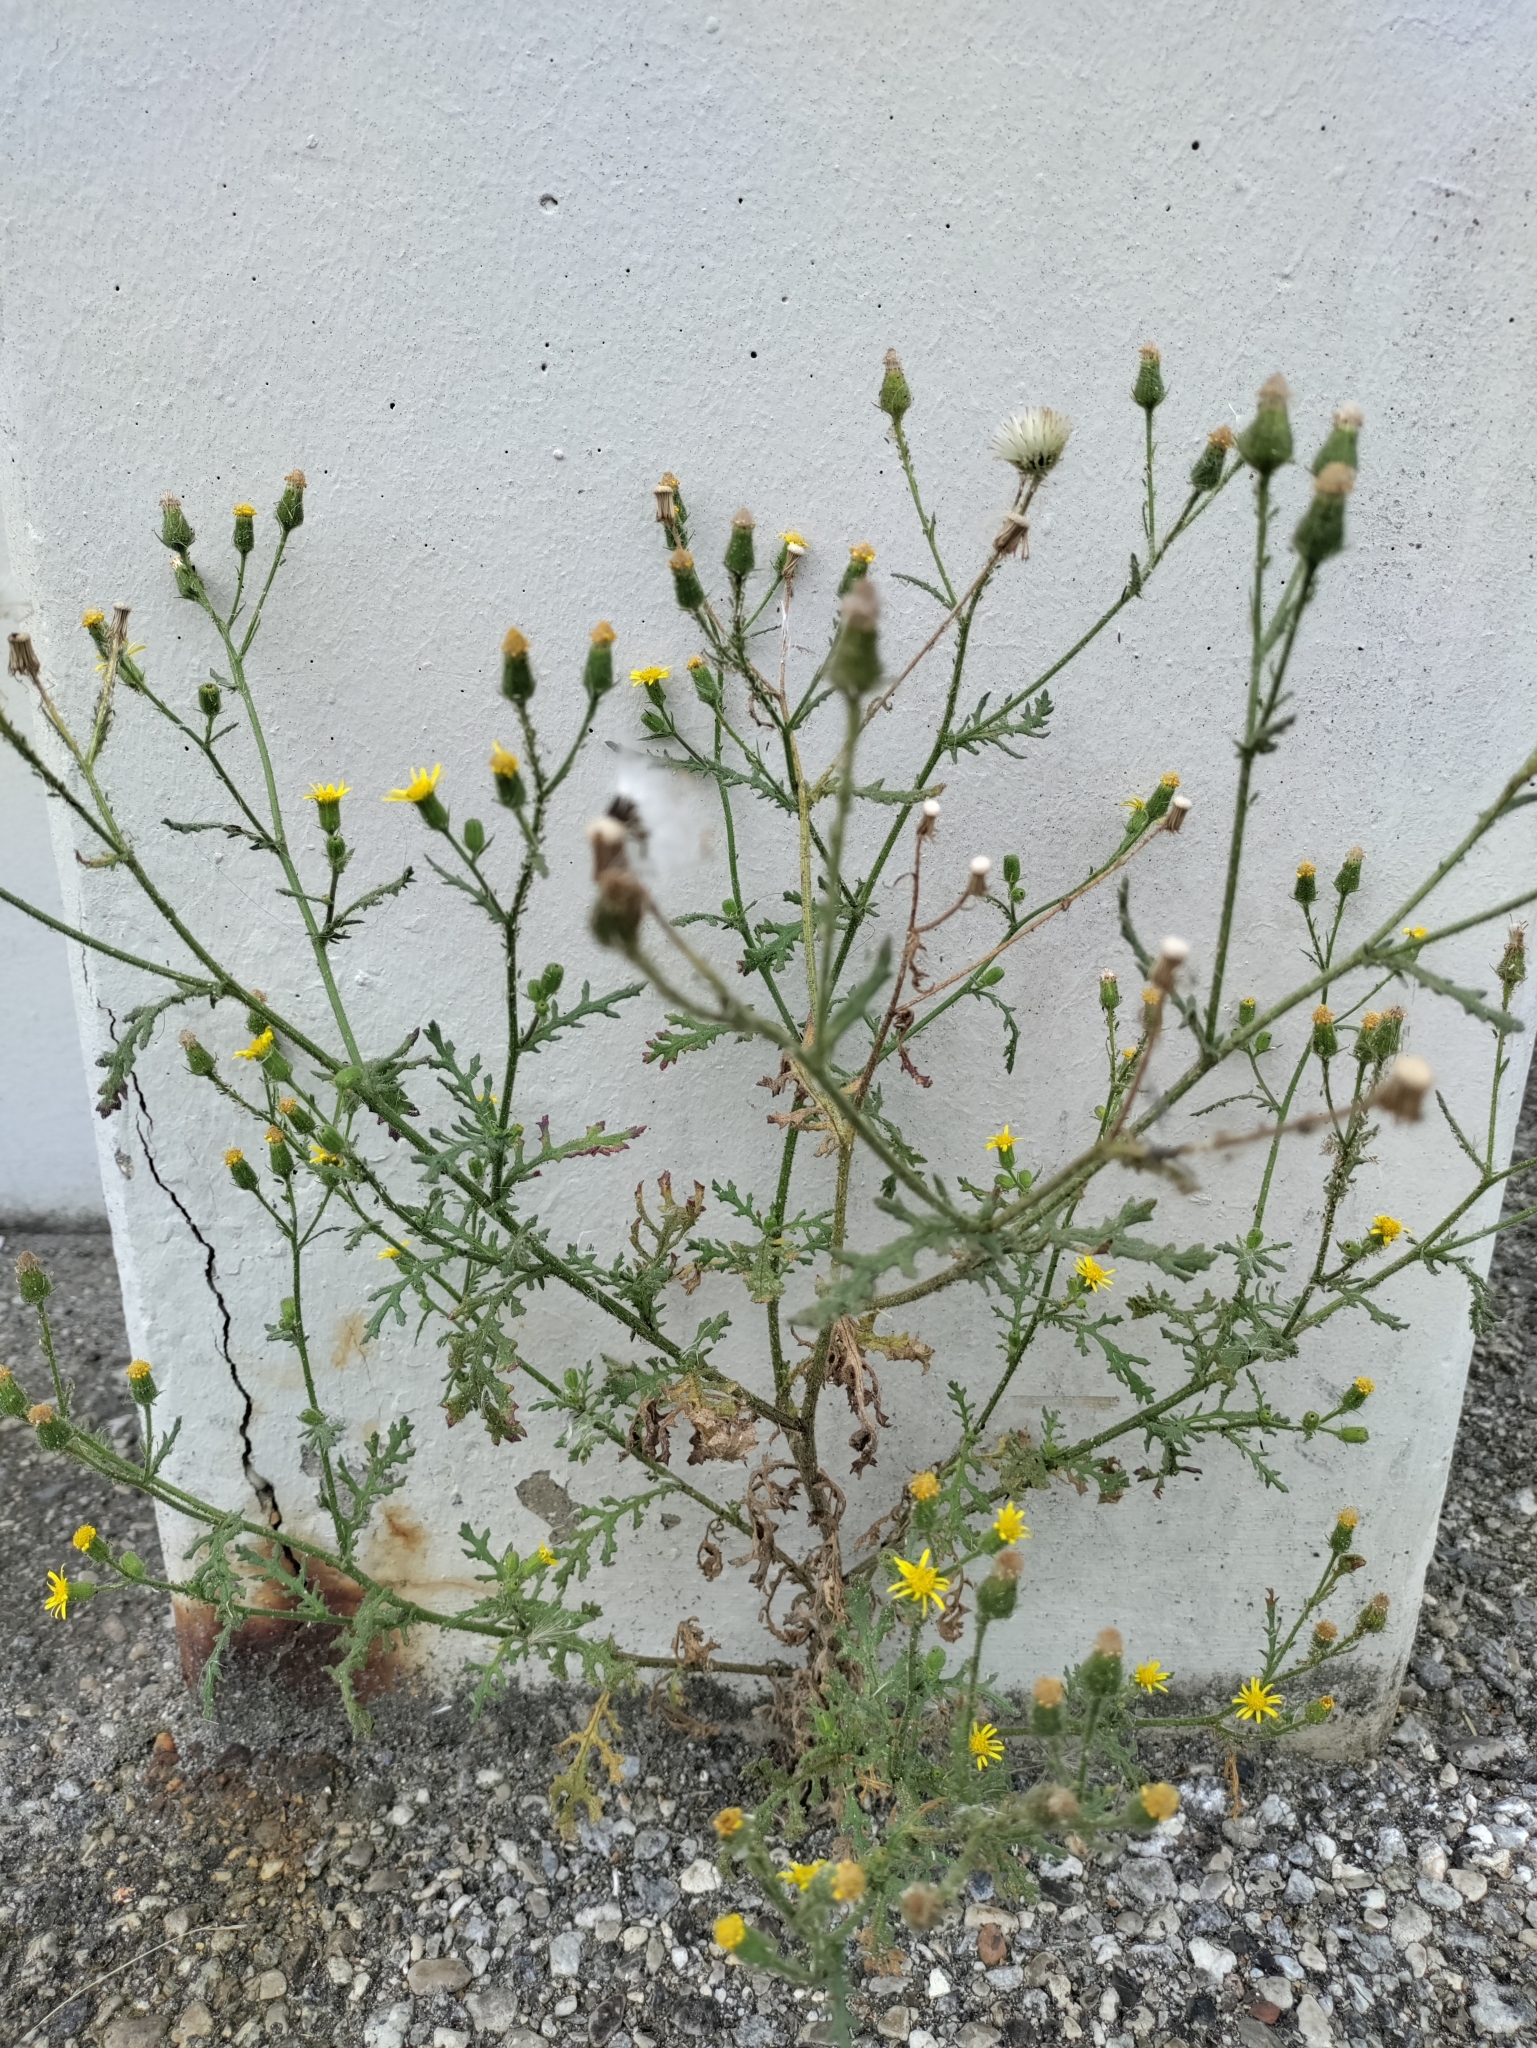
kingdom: Plantae
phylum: Tracheophyta
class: Magnoliopsida
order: Asterales
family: Asteraceae
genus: Senecio
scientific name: Senecio viscosus
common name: Sticky groundsel
